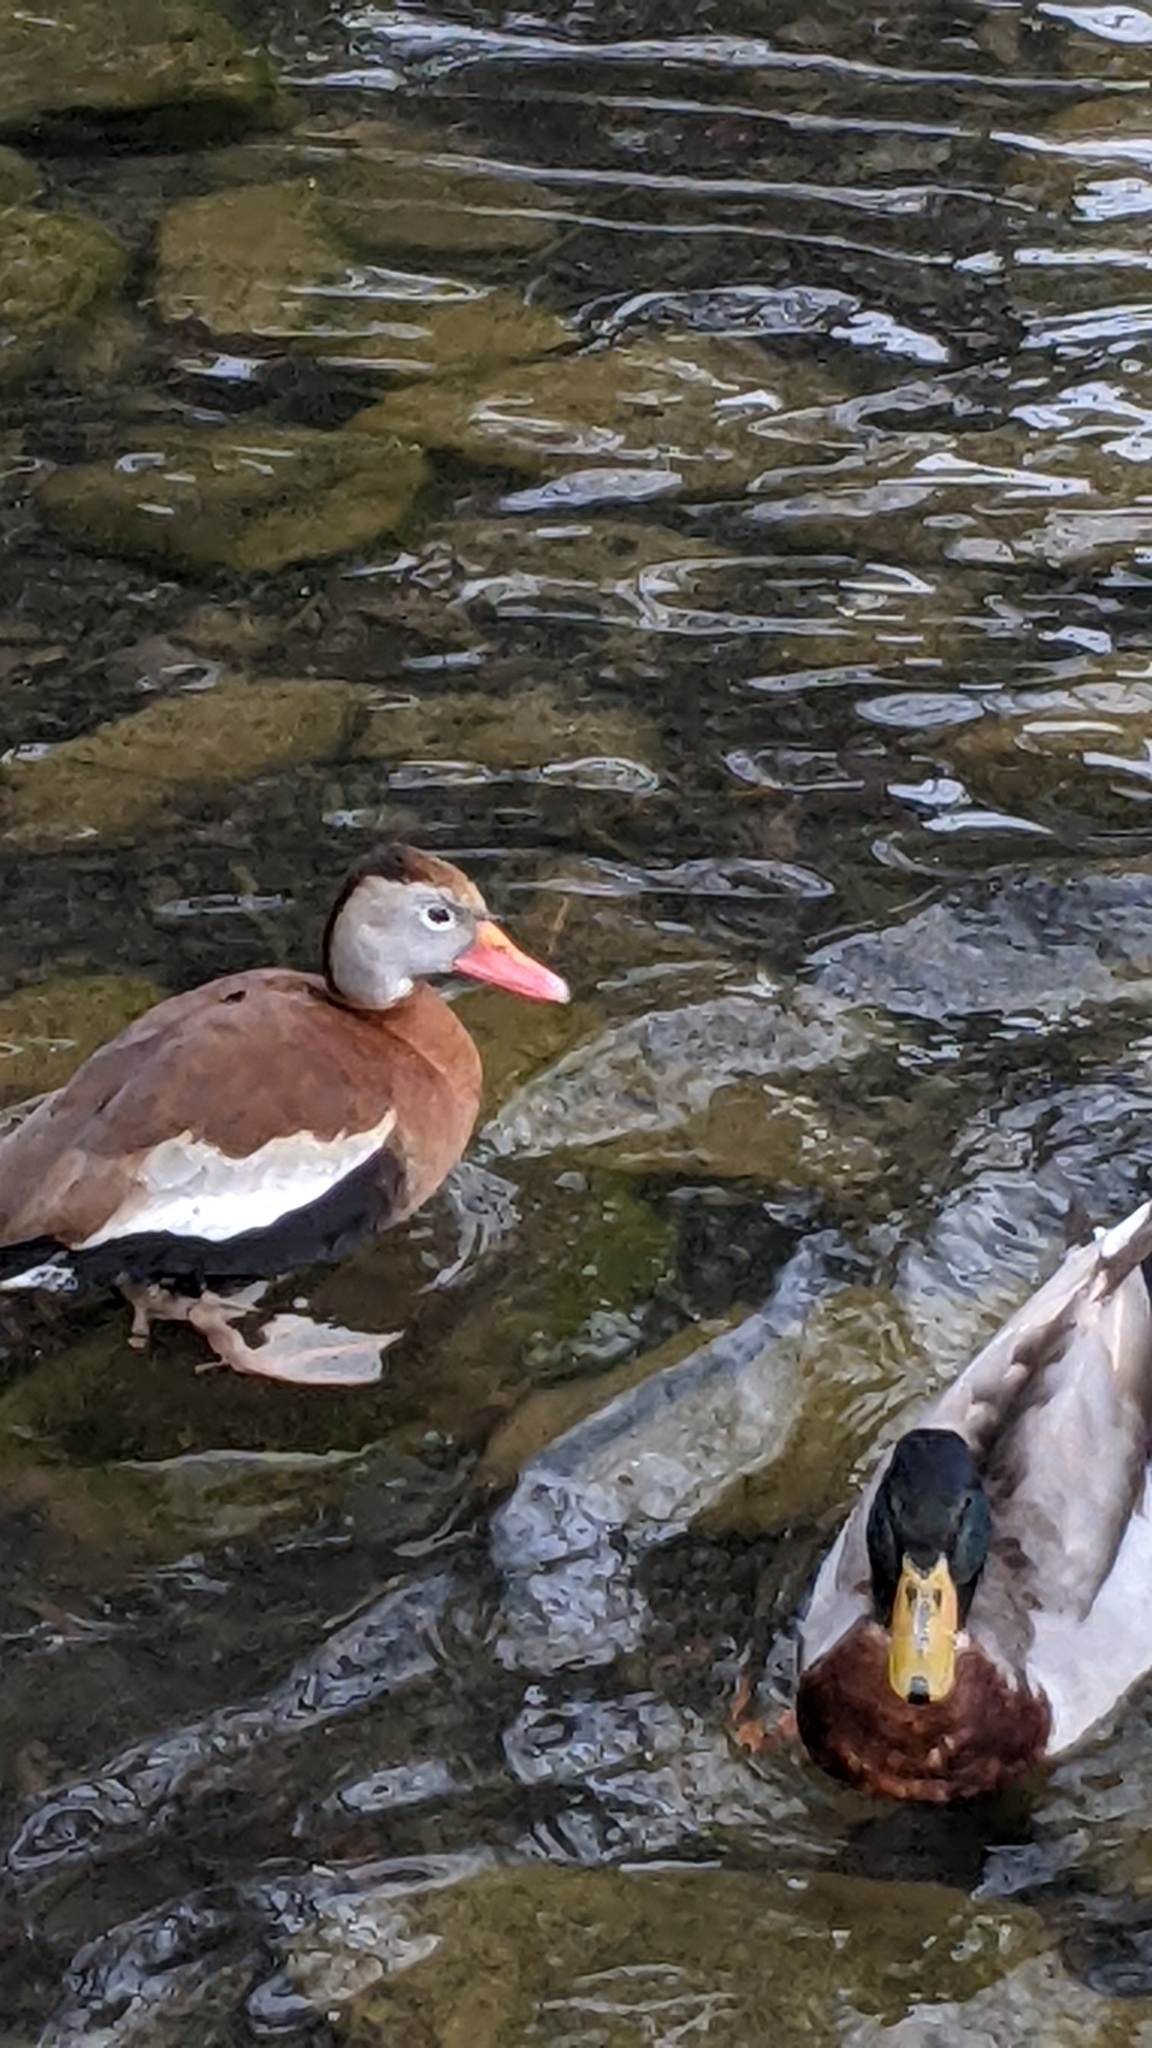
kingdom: Animalia
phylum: Chordata
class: Aves
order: Anseriformes
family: Anatidae
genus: Dendrocygna
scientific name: Dendrocygna autumnalis
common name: Black-bellied whistling duck
